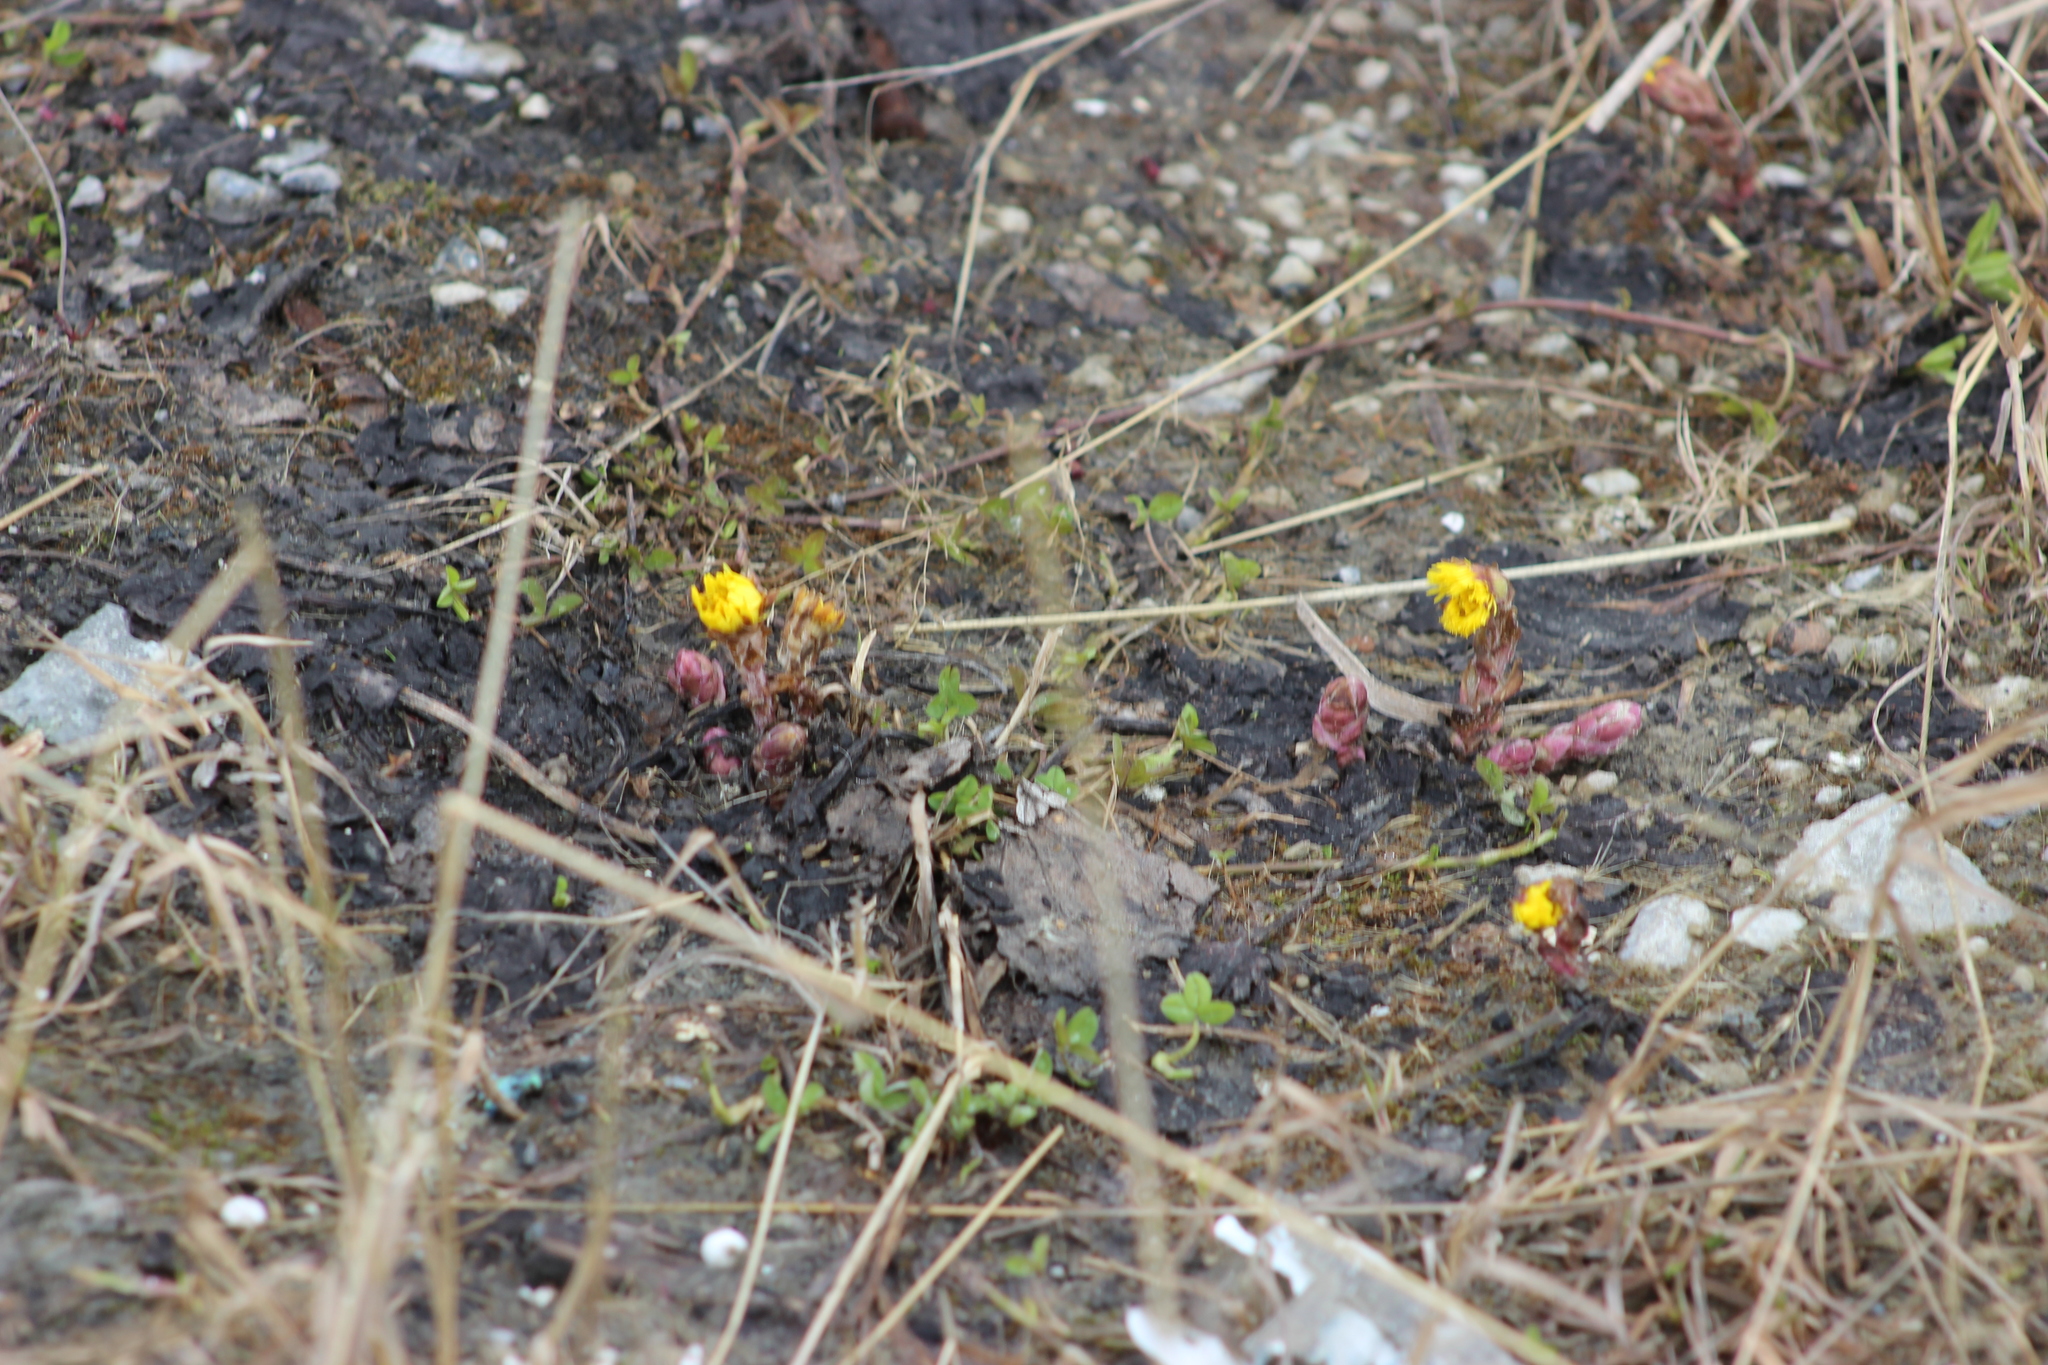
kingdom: Plantae
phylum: Tracheophyta
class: Magnoliopsida
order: Asterales
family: Asteraceae
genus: Tussilago
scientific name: Tussilago farfara
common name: Coltsfoot
